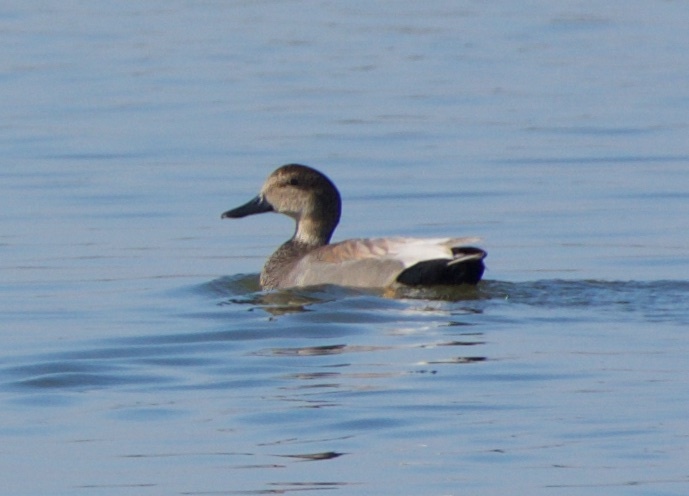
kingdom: Animalia
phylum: Chordata
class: Aves
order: Anseriformes
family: Anatidae
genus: Mareca
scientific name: Mareca strepera
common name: Gadwall
